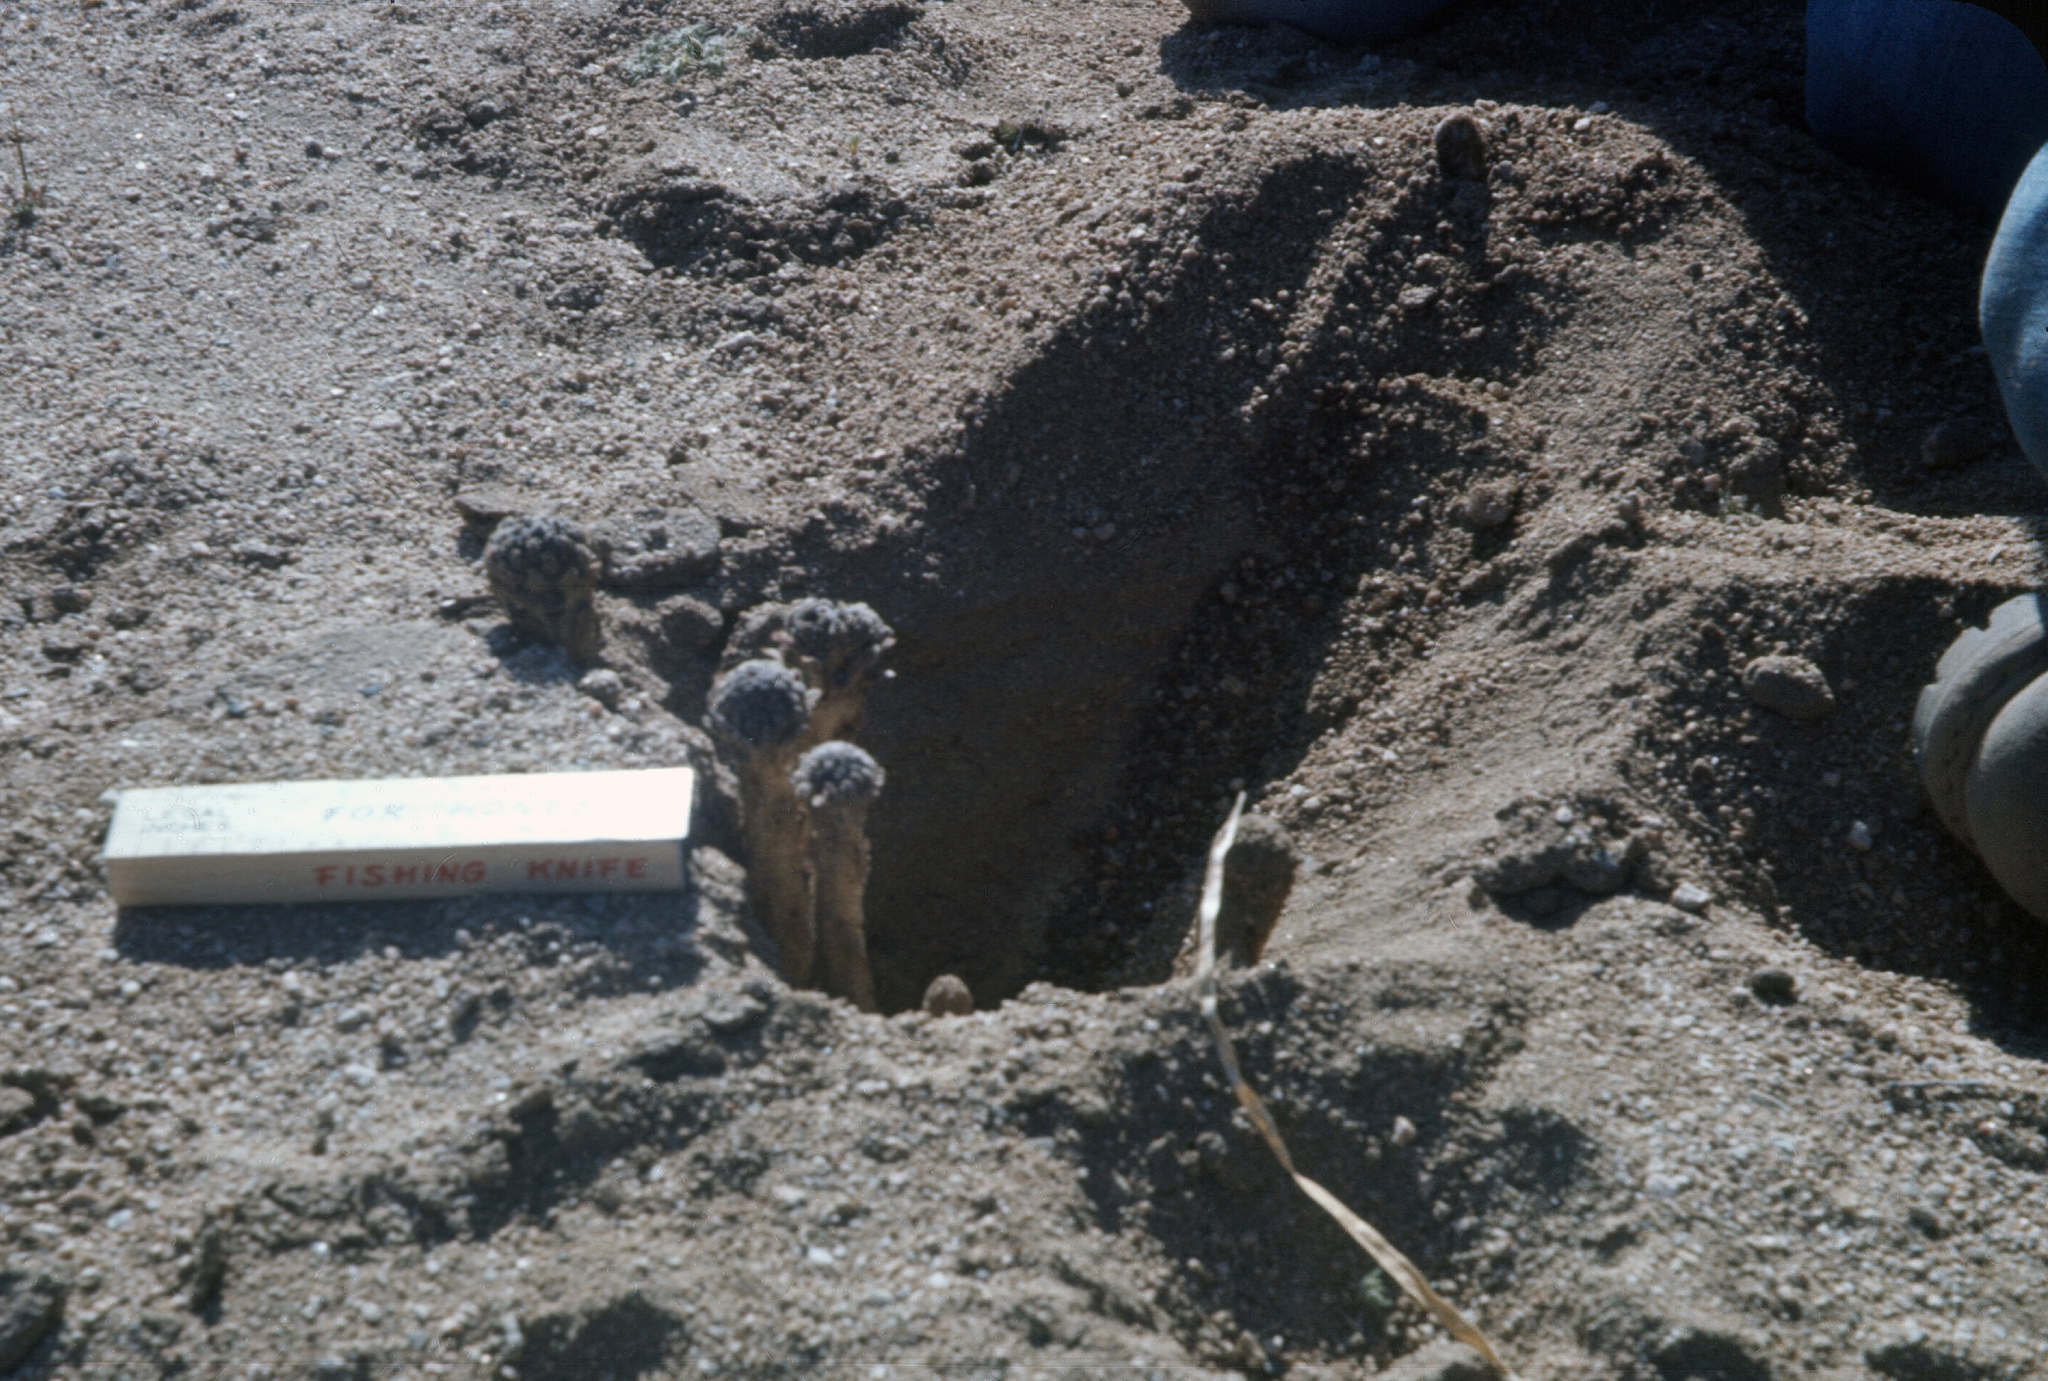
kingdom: Plantae
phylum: Tracheophyta
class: Magnoliopsida
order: Boraginales
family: Lennoaceae
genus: Pholisma
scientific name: Pholisma arenarium
